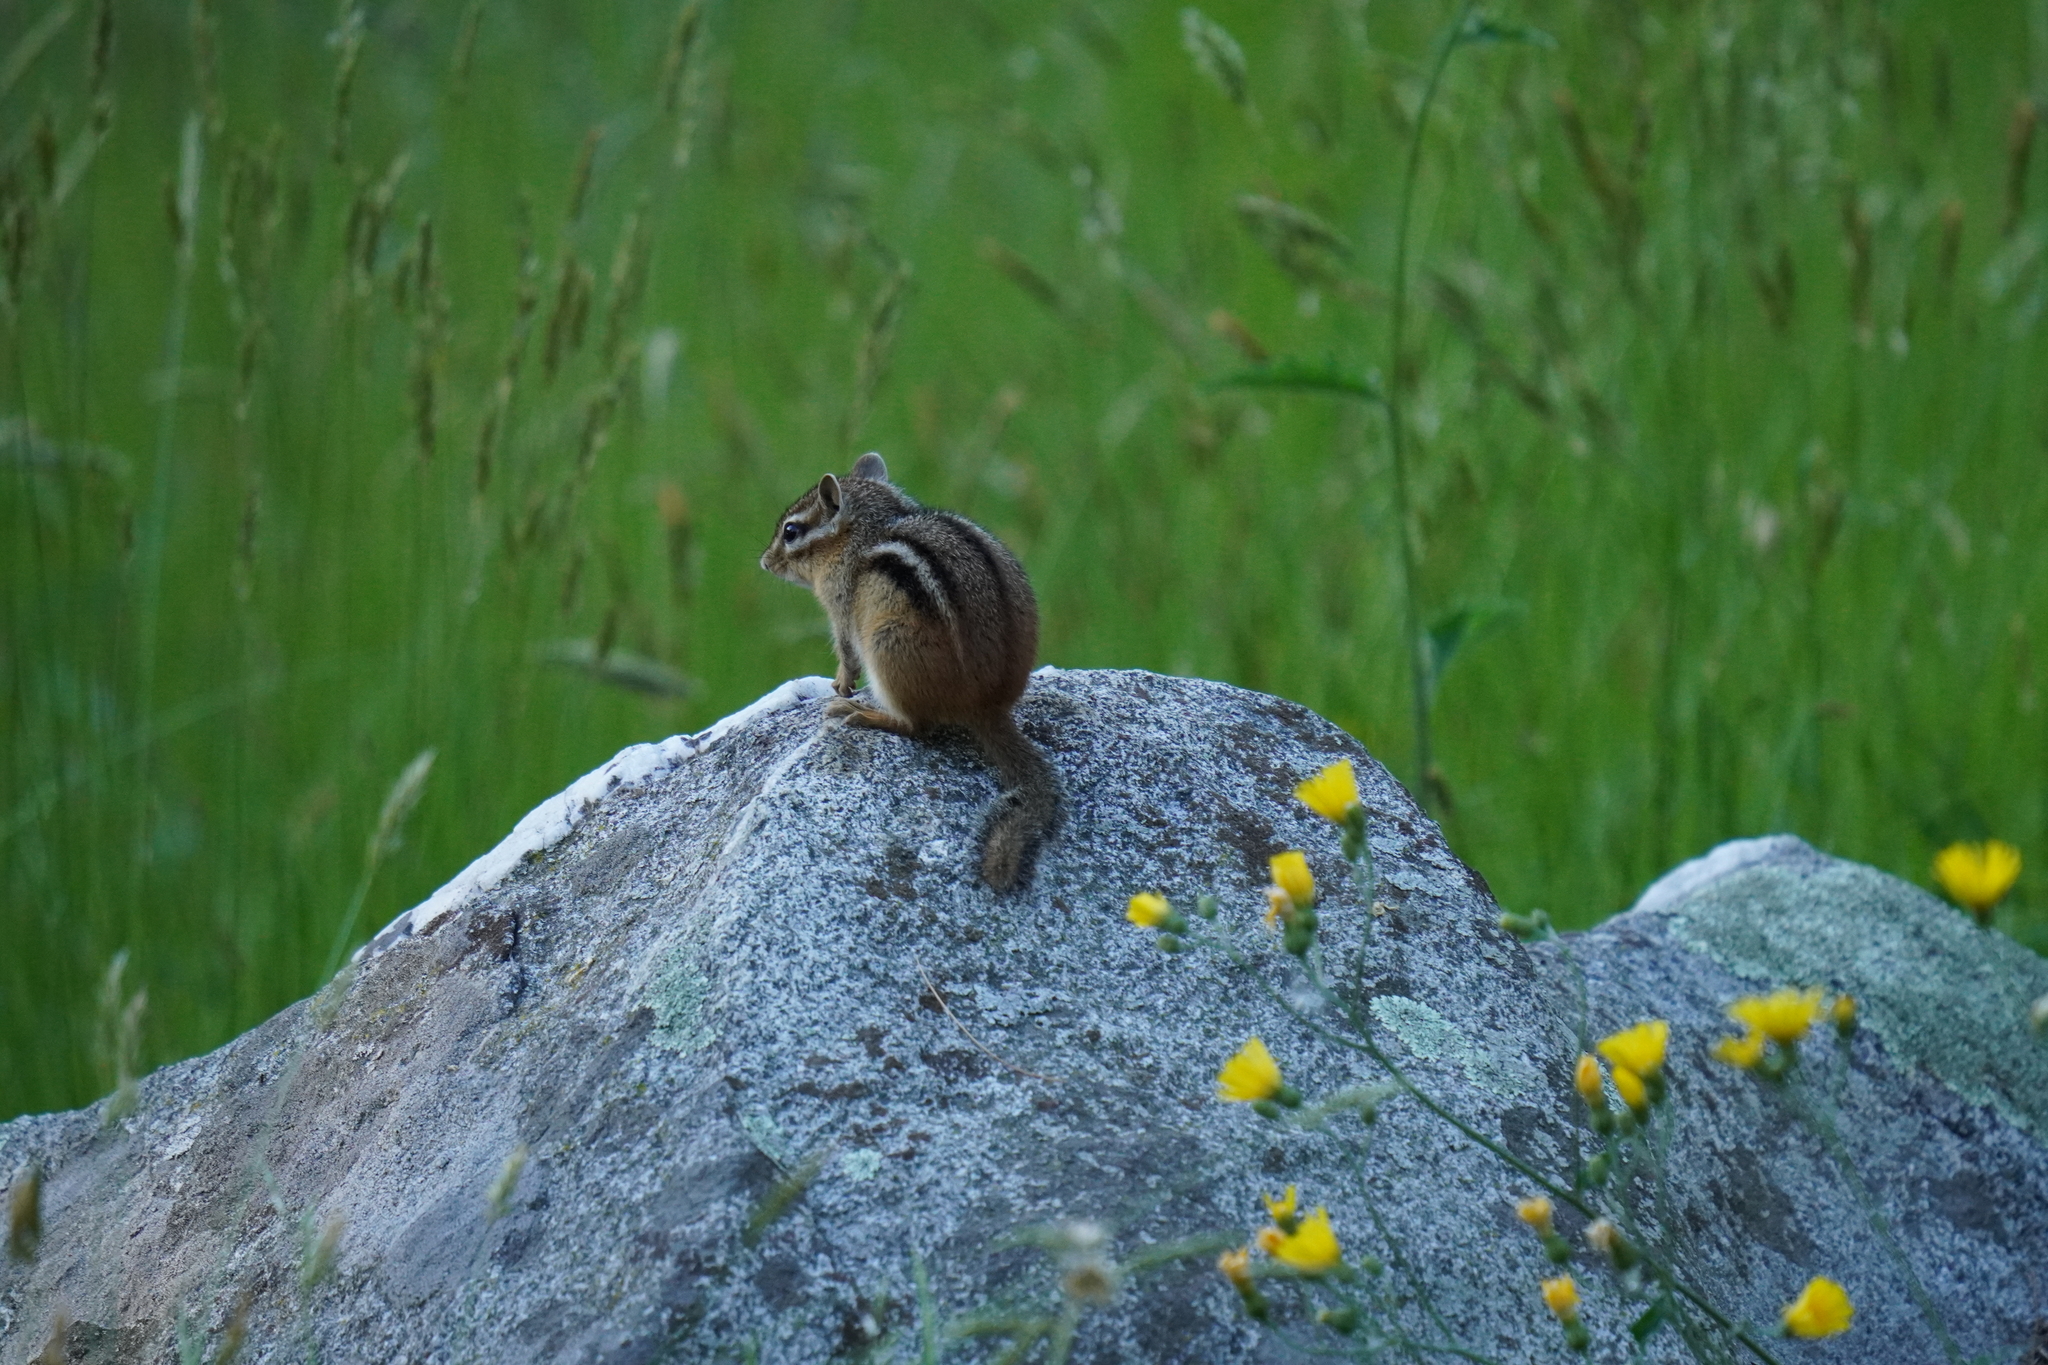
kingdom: Animalia
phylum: Chordata
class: Mammalia
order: Rodentia
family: Sciuridae
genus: Tamias
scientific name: Tamias striatus
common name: Eastern chipmunk
